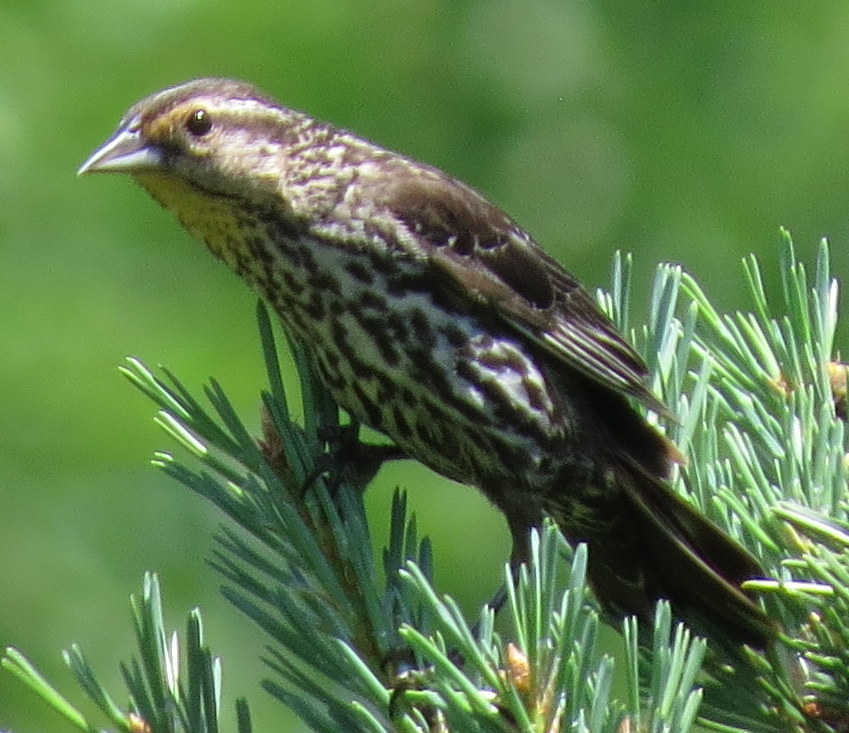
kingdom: Animalia
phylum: Chordata
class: Aves
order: Passeriformes
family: Icteridae
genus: Agelaius
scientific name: Agelaius phoeniceus
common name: Red-winged blackbird
